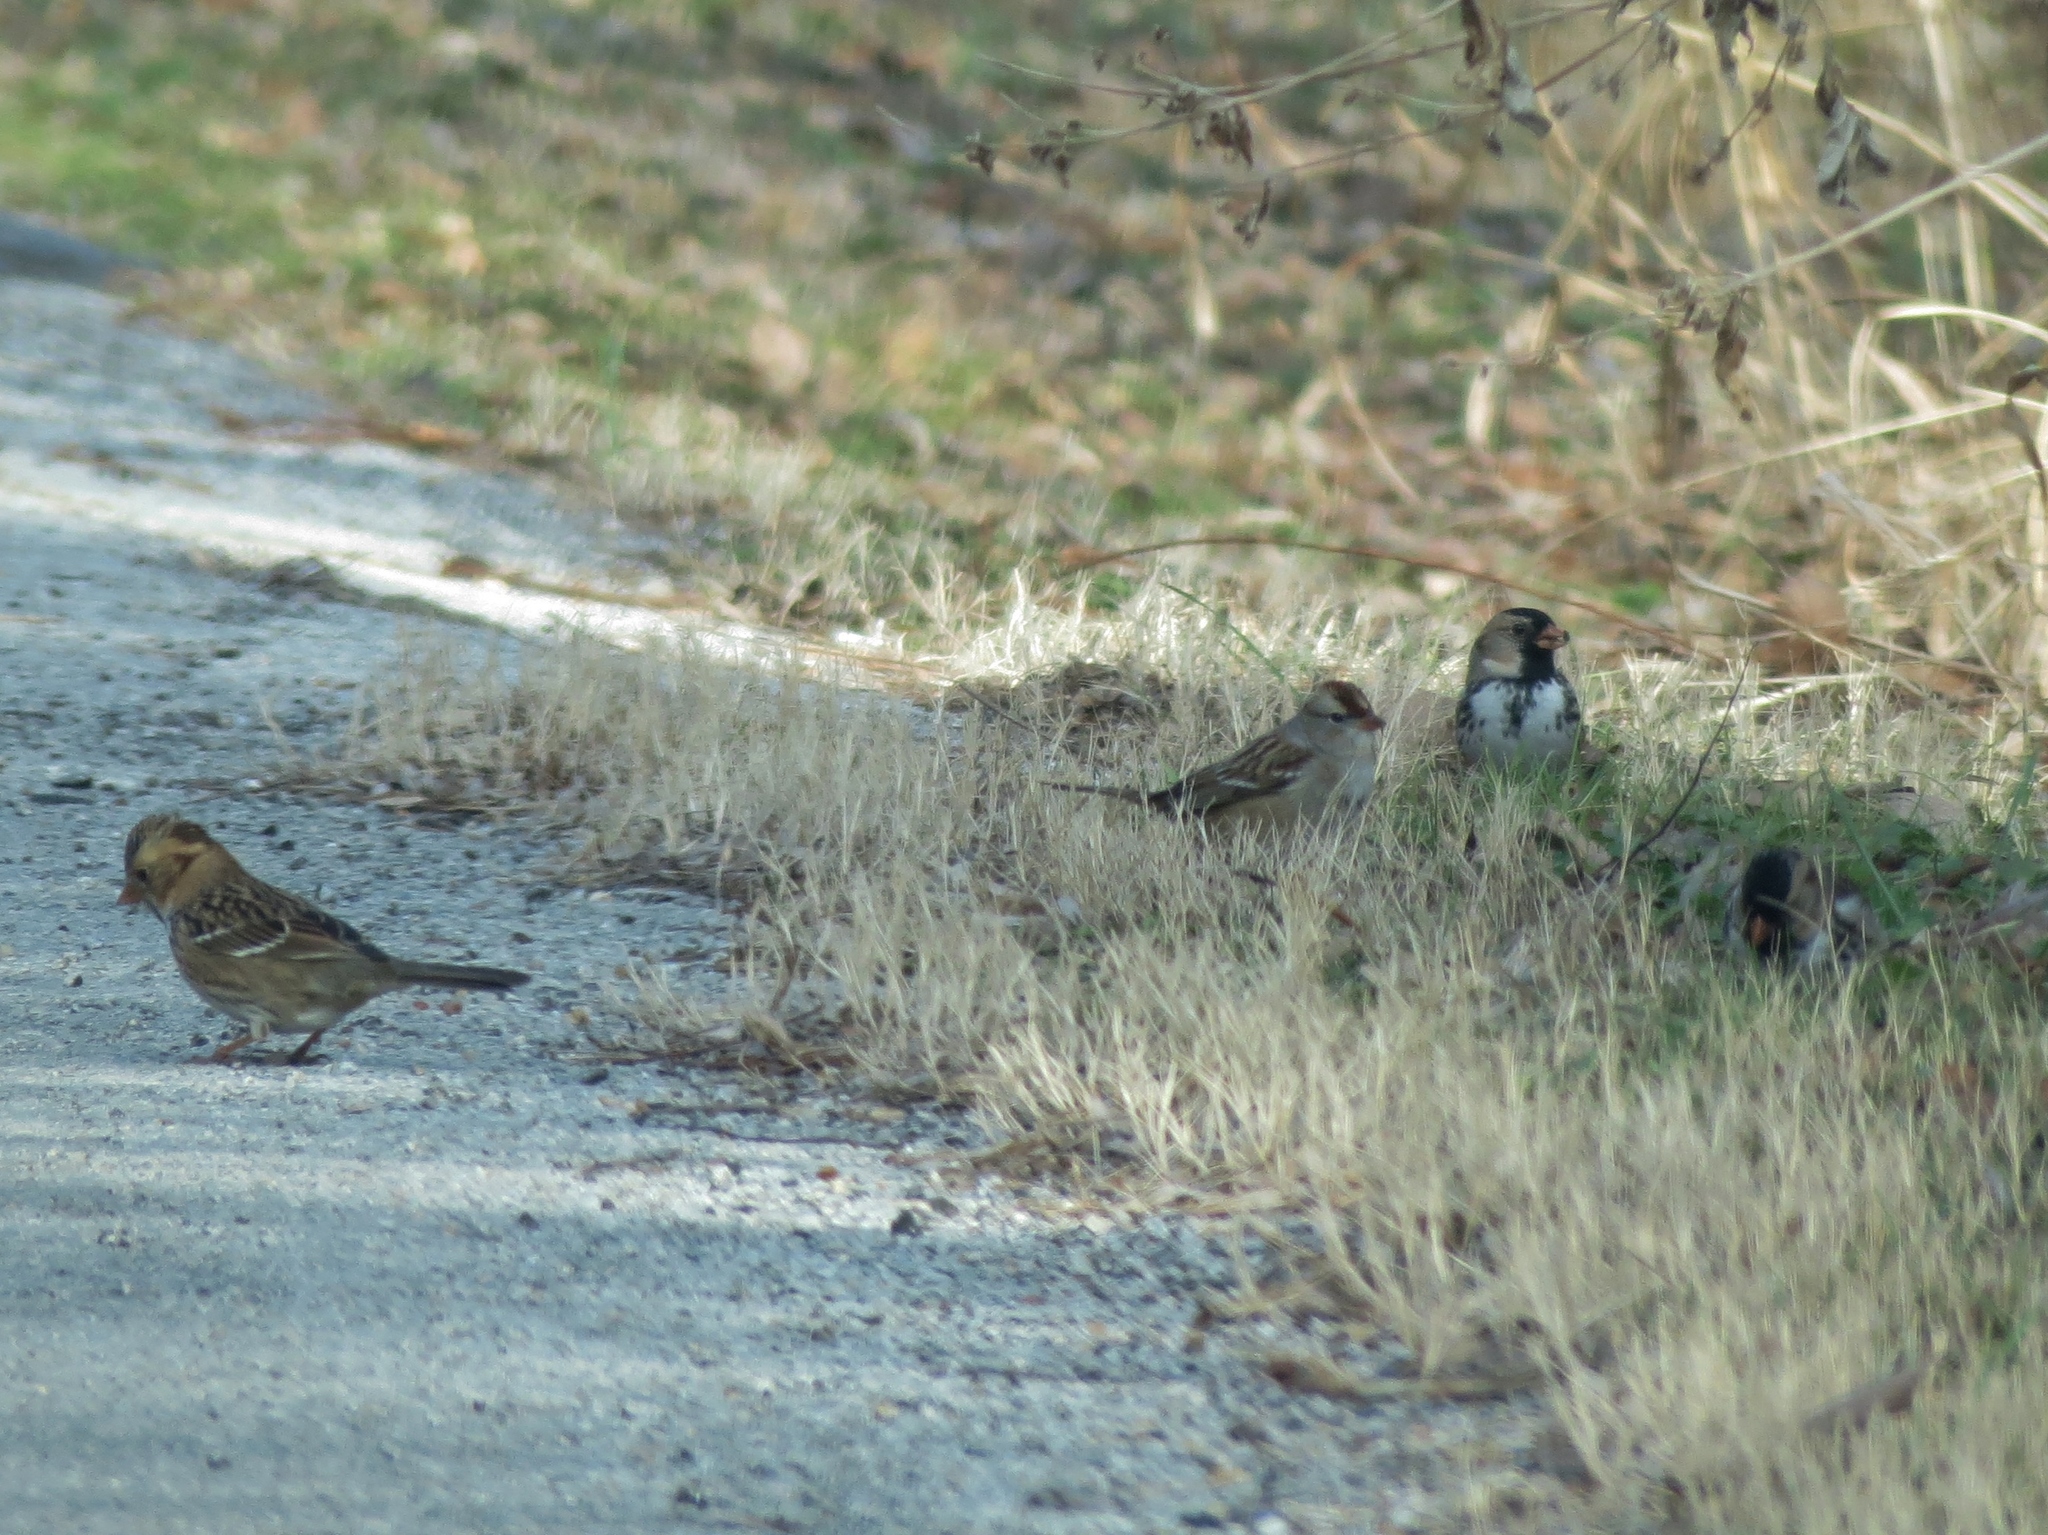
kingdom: Animalia
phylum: Chordata
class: Aves
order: Passeriformes
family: Passerellidae
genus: Zonotrichia
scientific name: Zonotrichia querula
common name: Harris's sparrow
